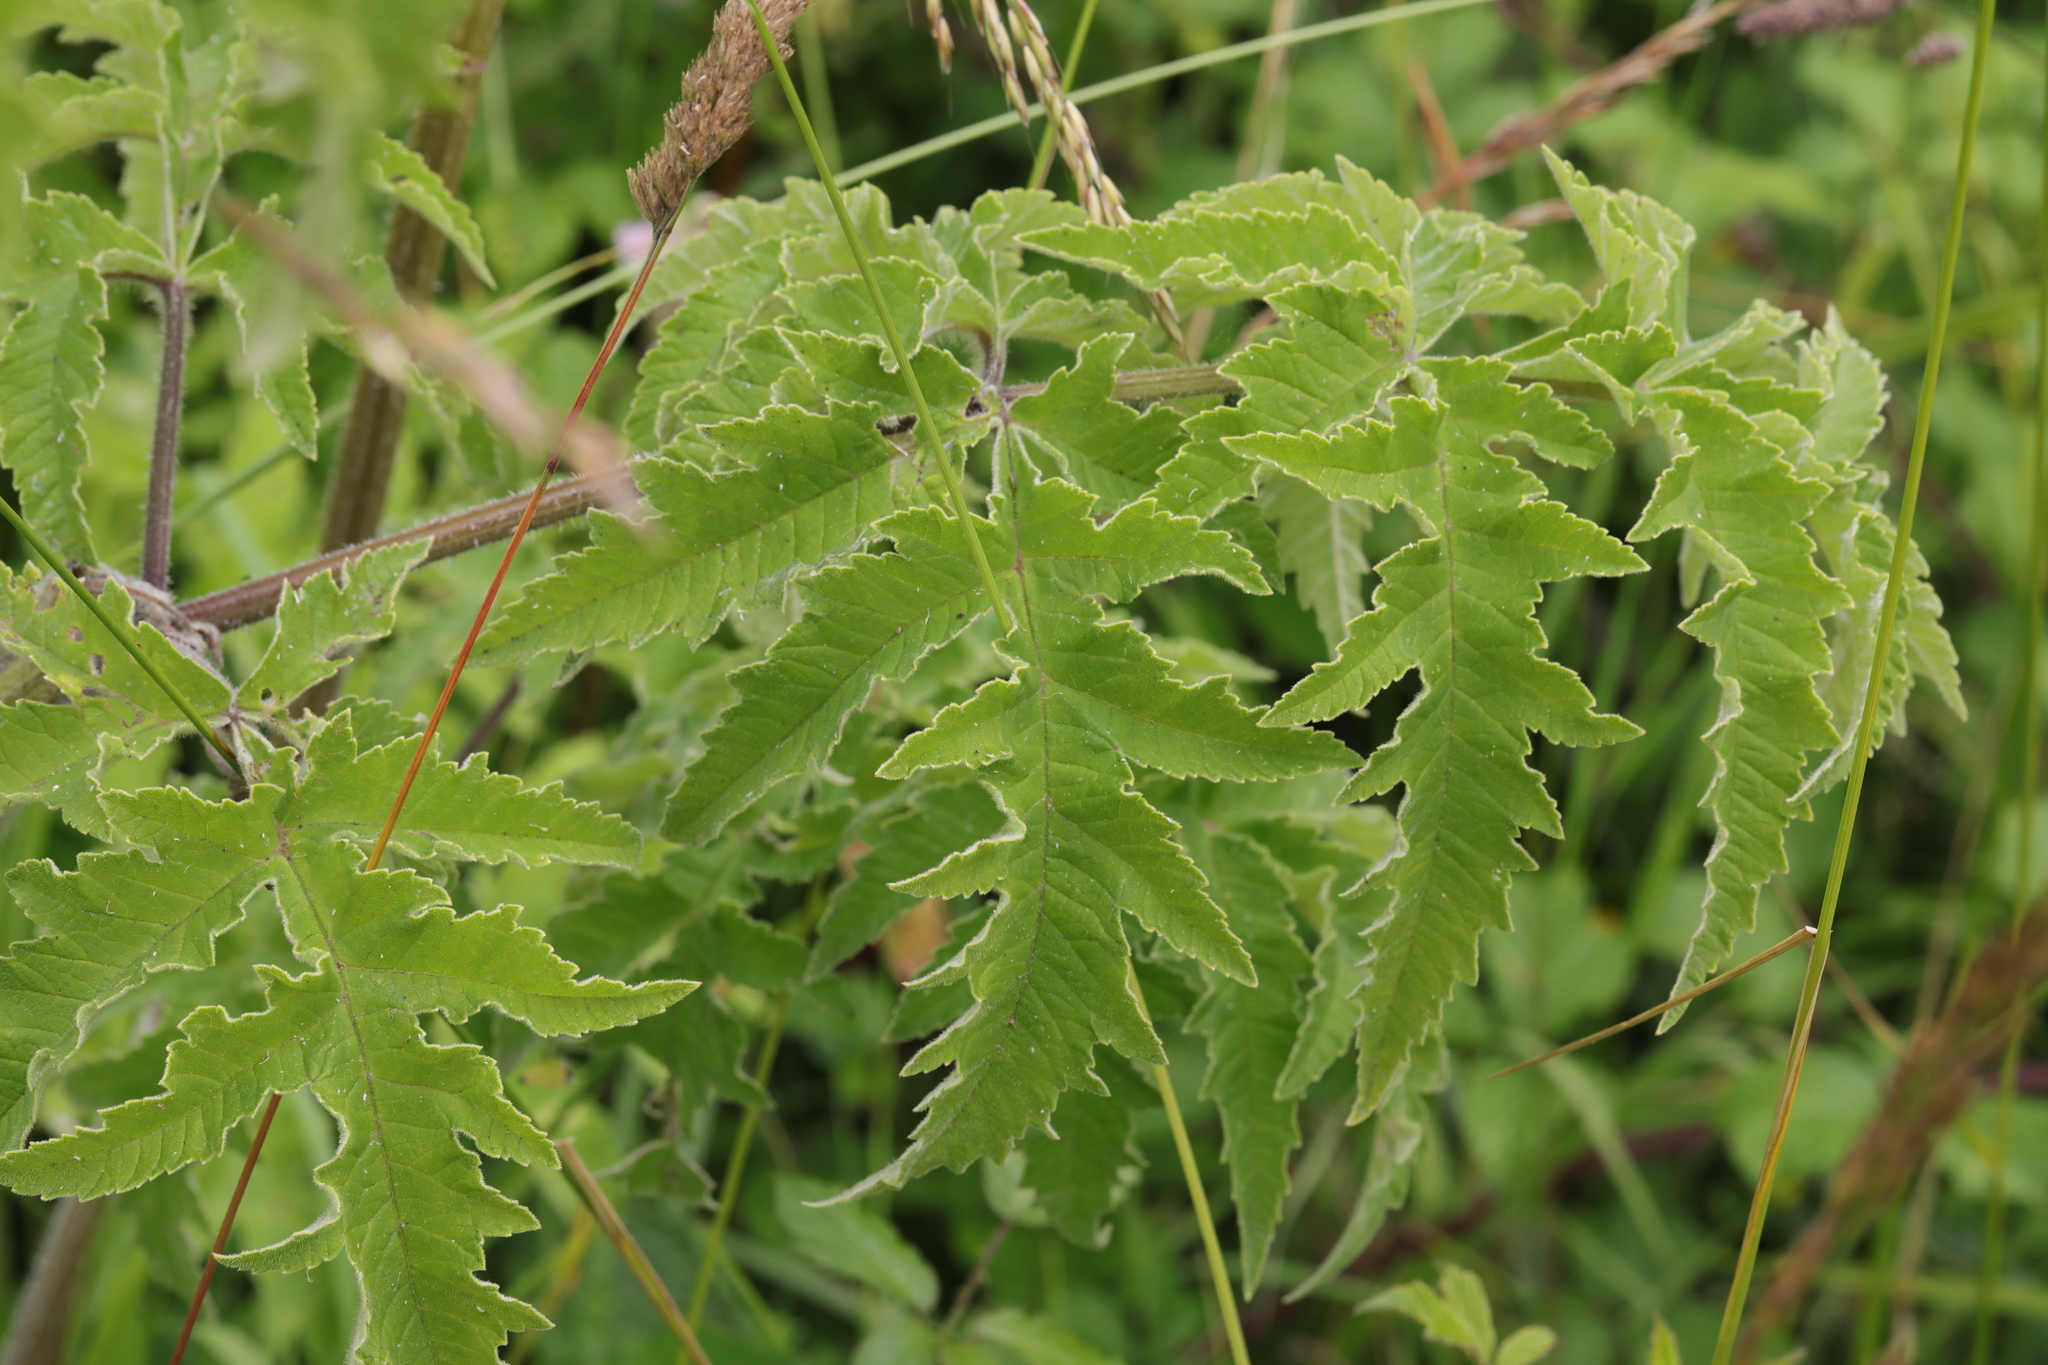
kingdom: Plantae
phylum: Tracheophyta
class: Magnoliopsida
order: Apiales
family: Apiaceae
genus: Heracleum
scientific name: Heracleum sphondylium
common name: Hogweed
